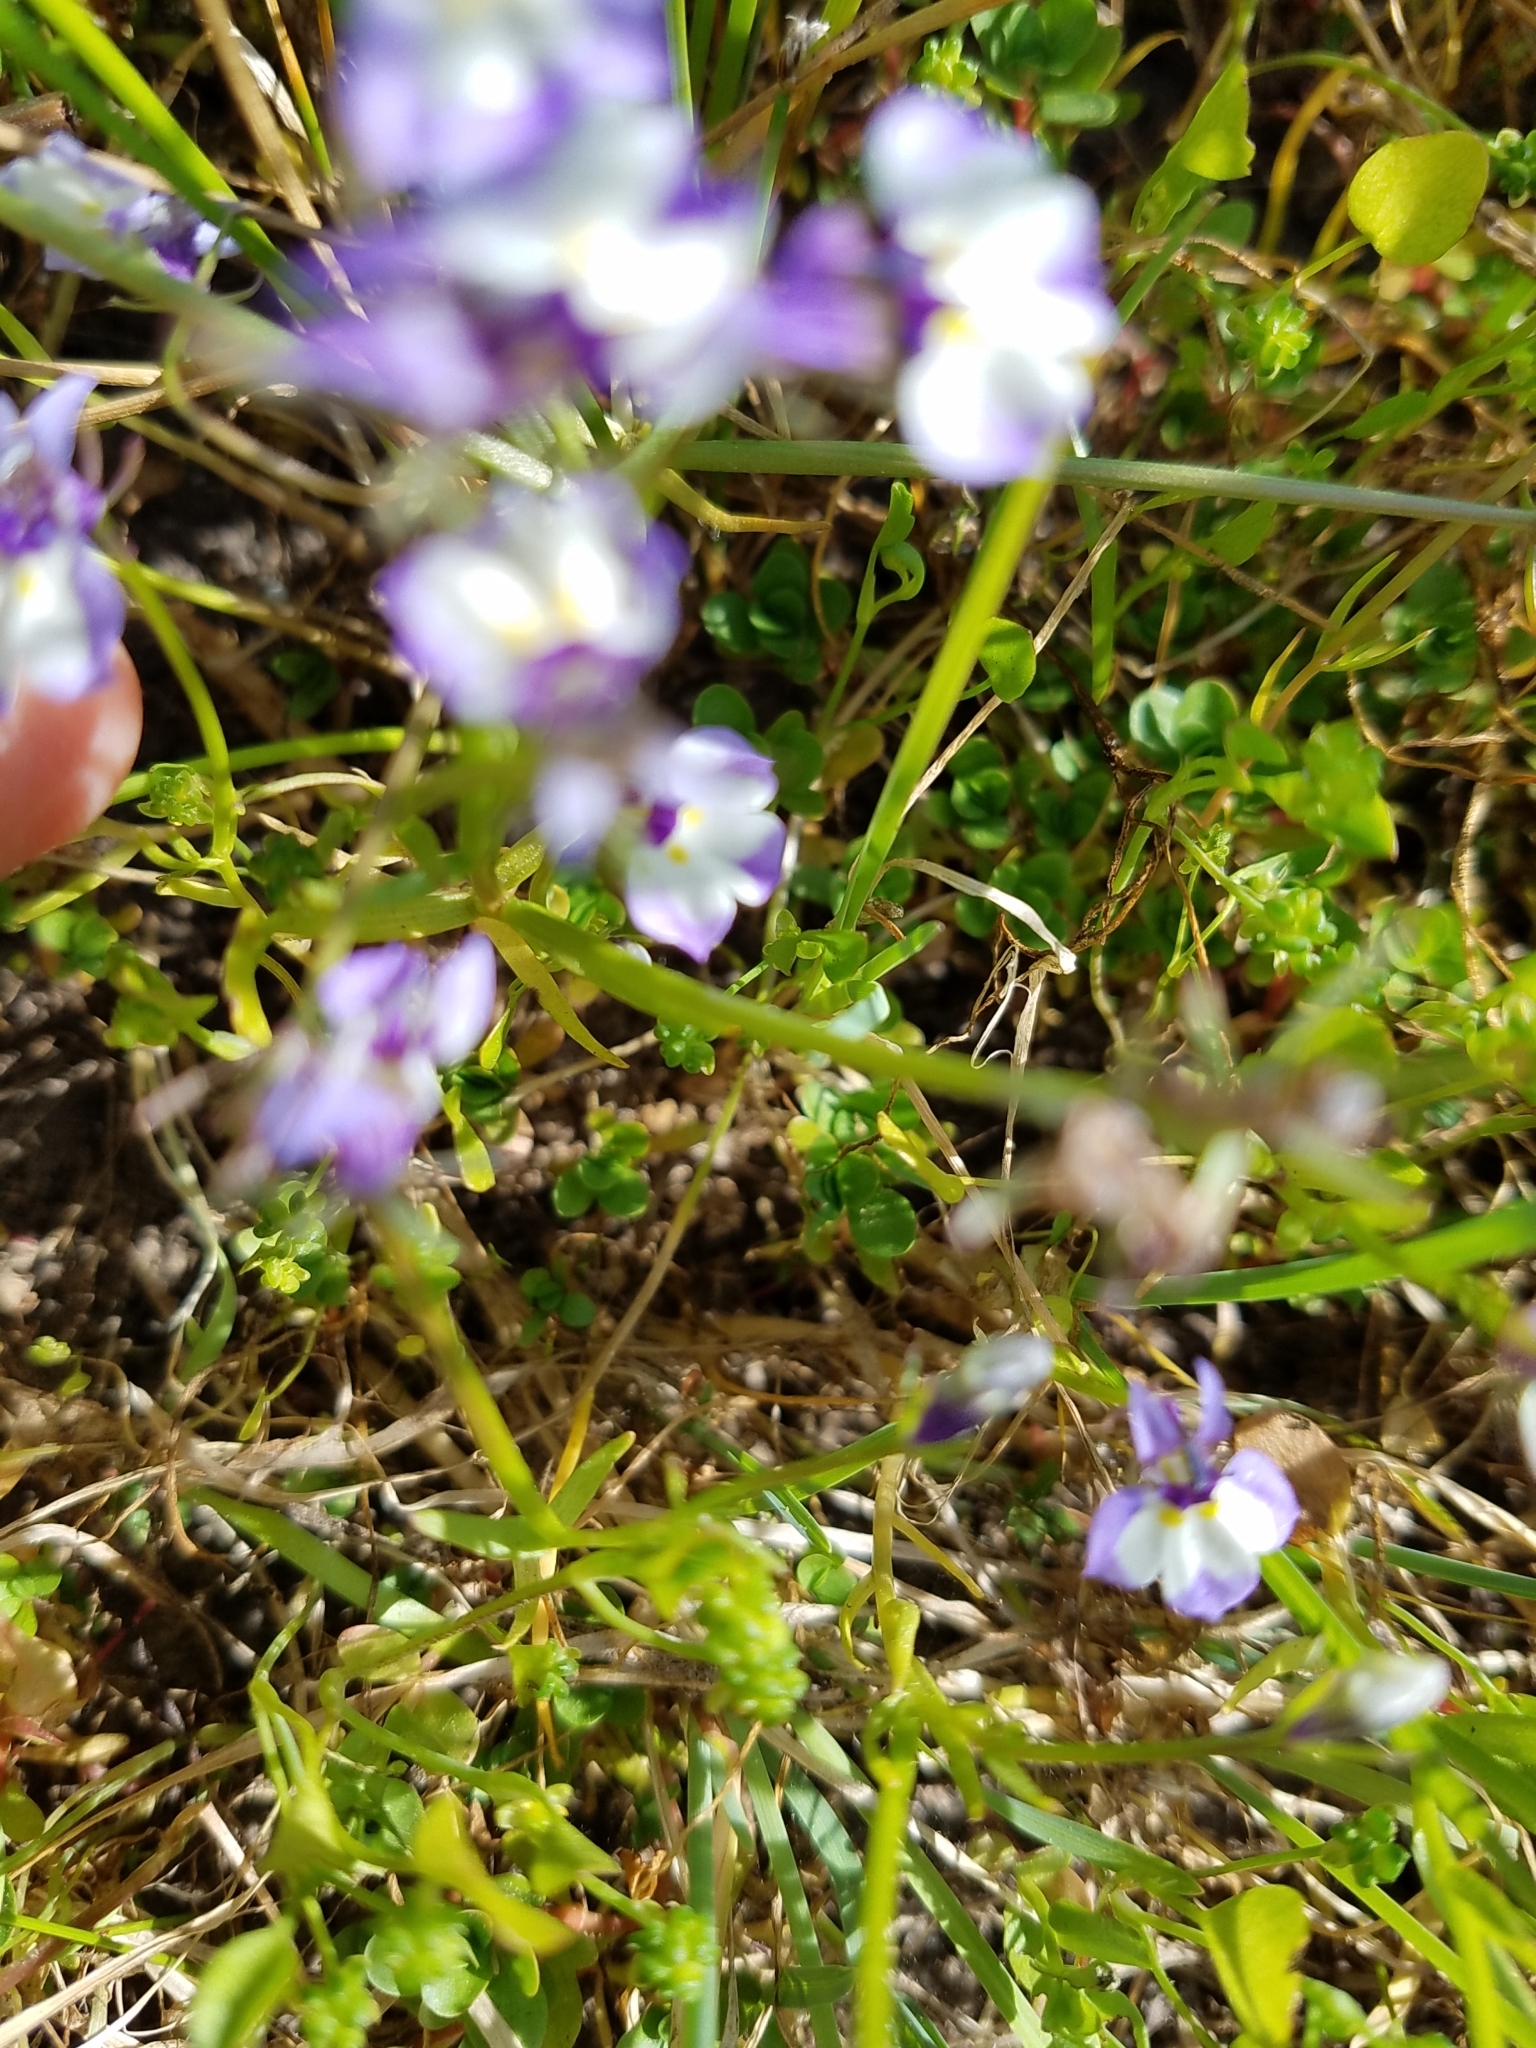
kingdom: Plantae
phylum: Tracheophyta
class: Magnoliopsida
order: Asterales
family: Campanulaceae
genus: Downingia
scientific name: Downingia bicornuta
